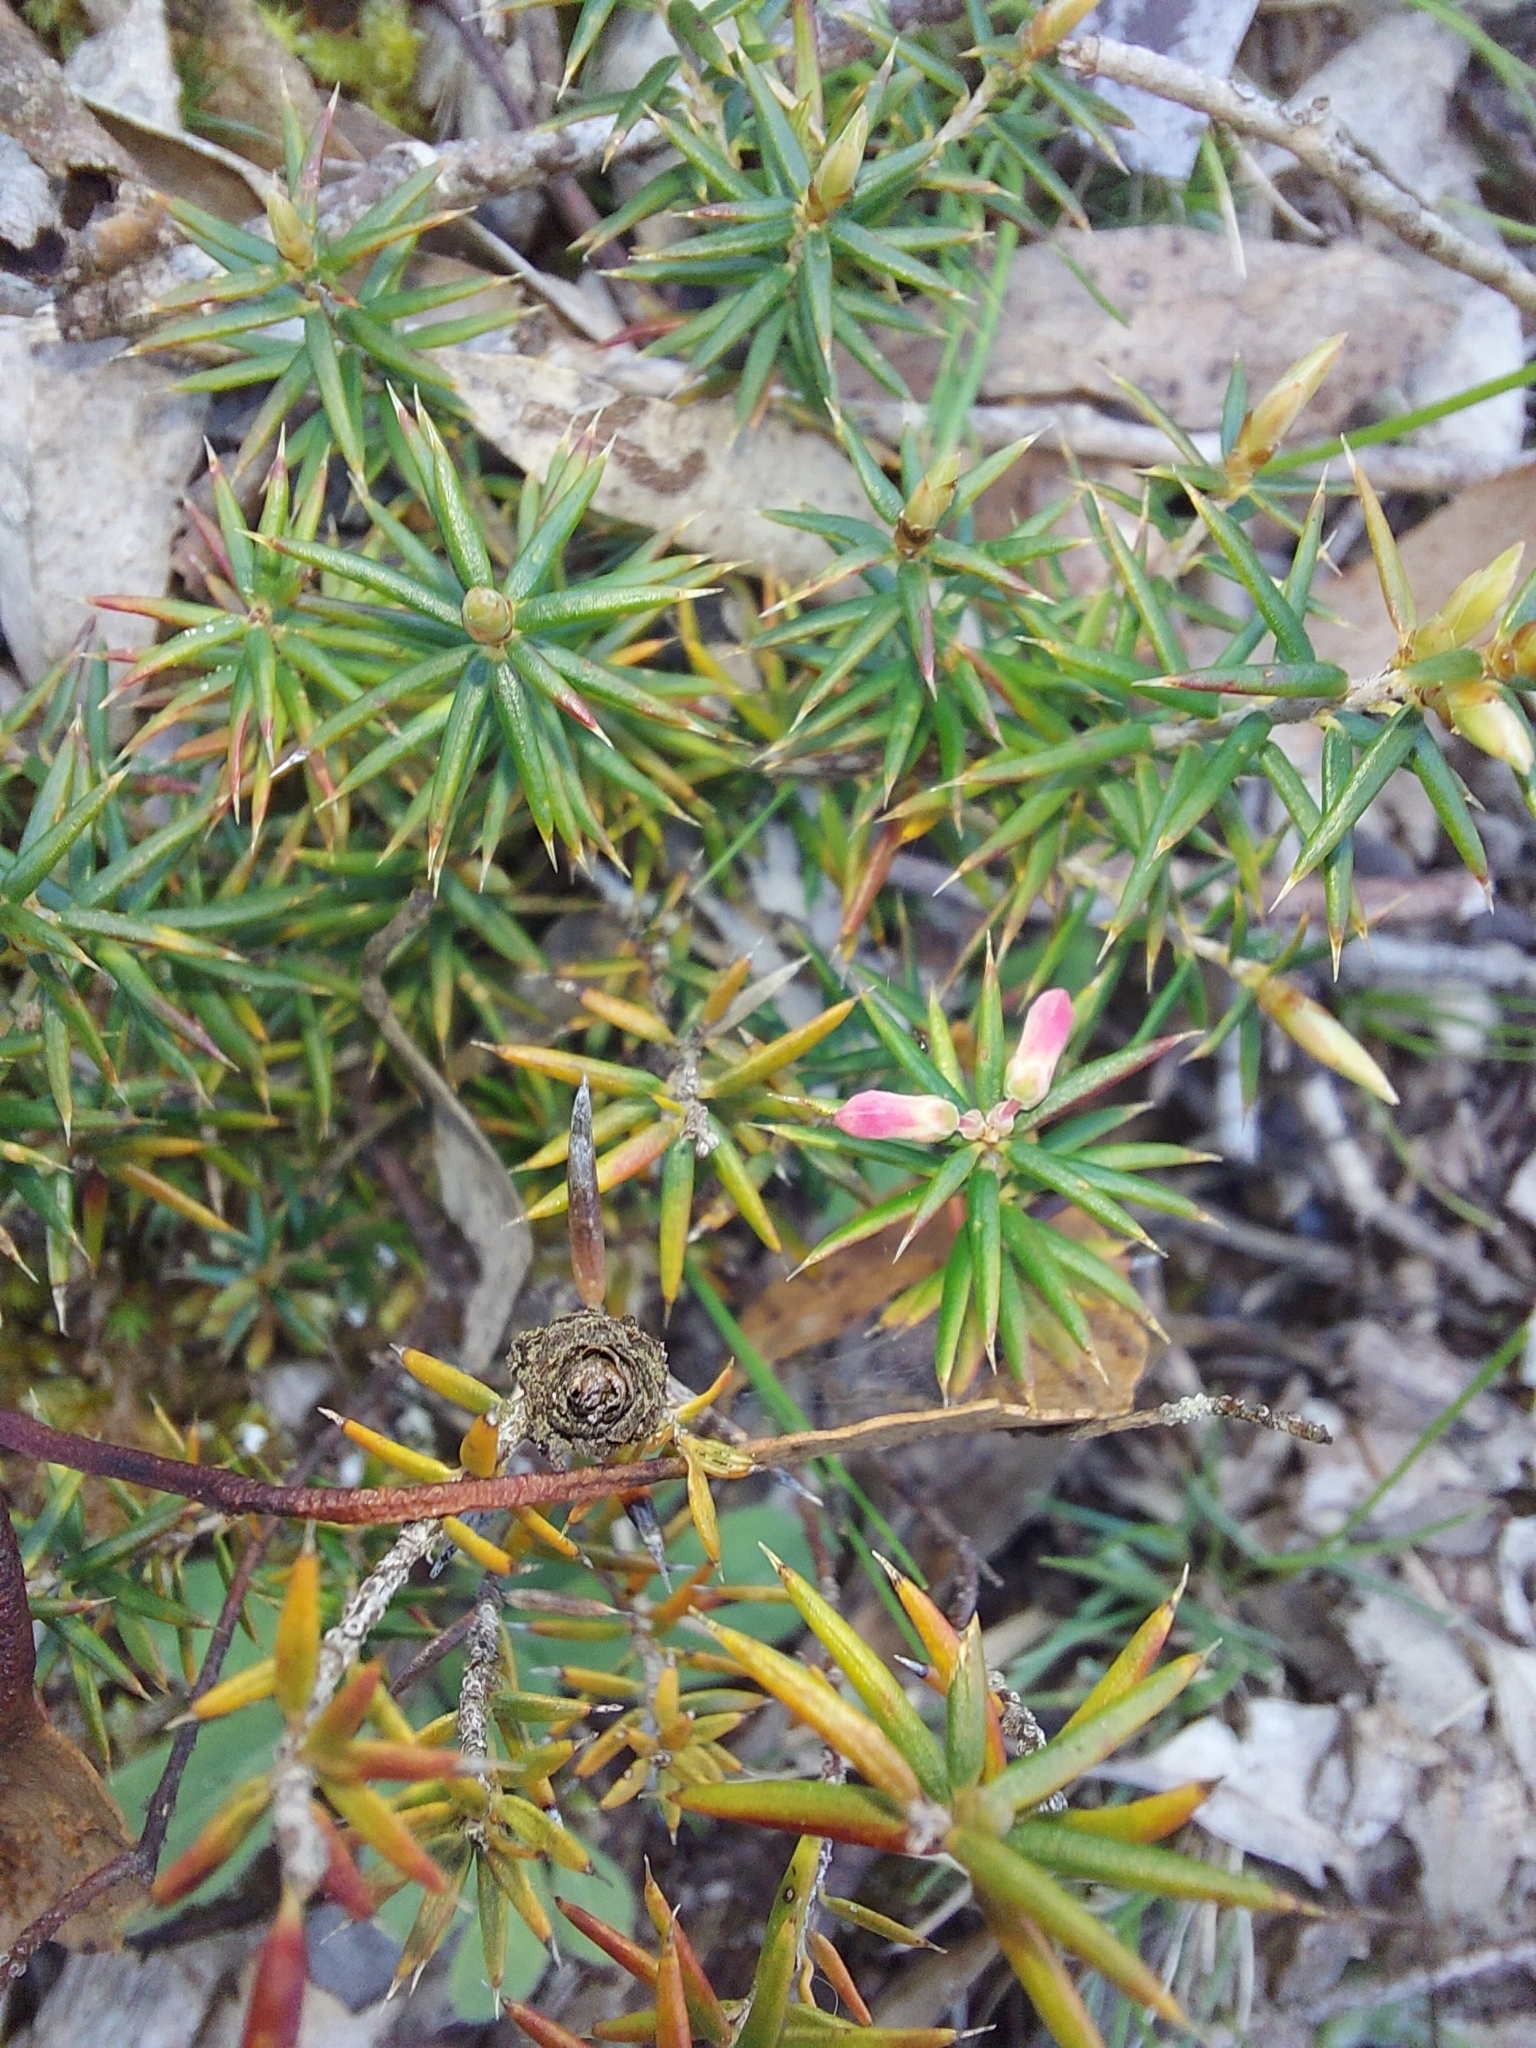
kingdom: Plantae
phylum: Tracheophyta
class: Magnoliopsida
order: Ericales
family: Ericaceae
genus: Lissanthe
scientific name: Lissanthe strigosa
